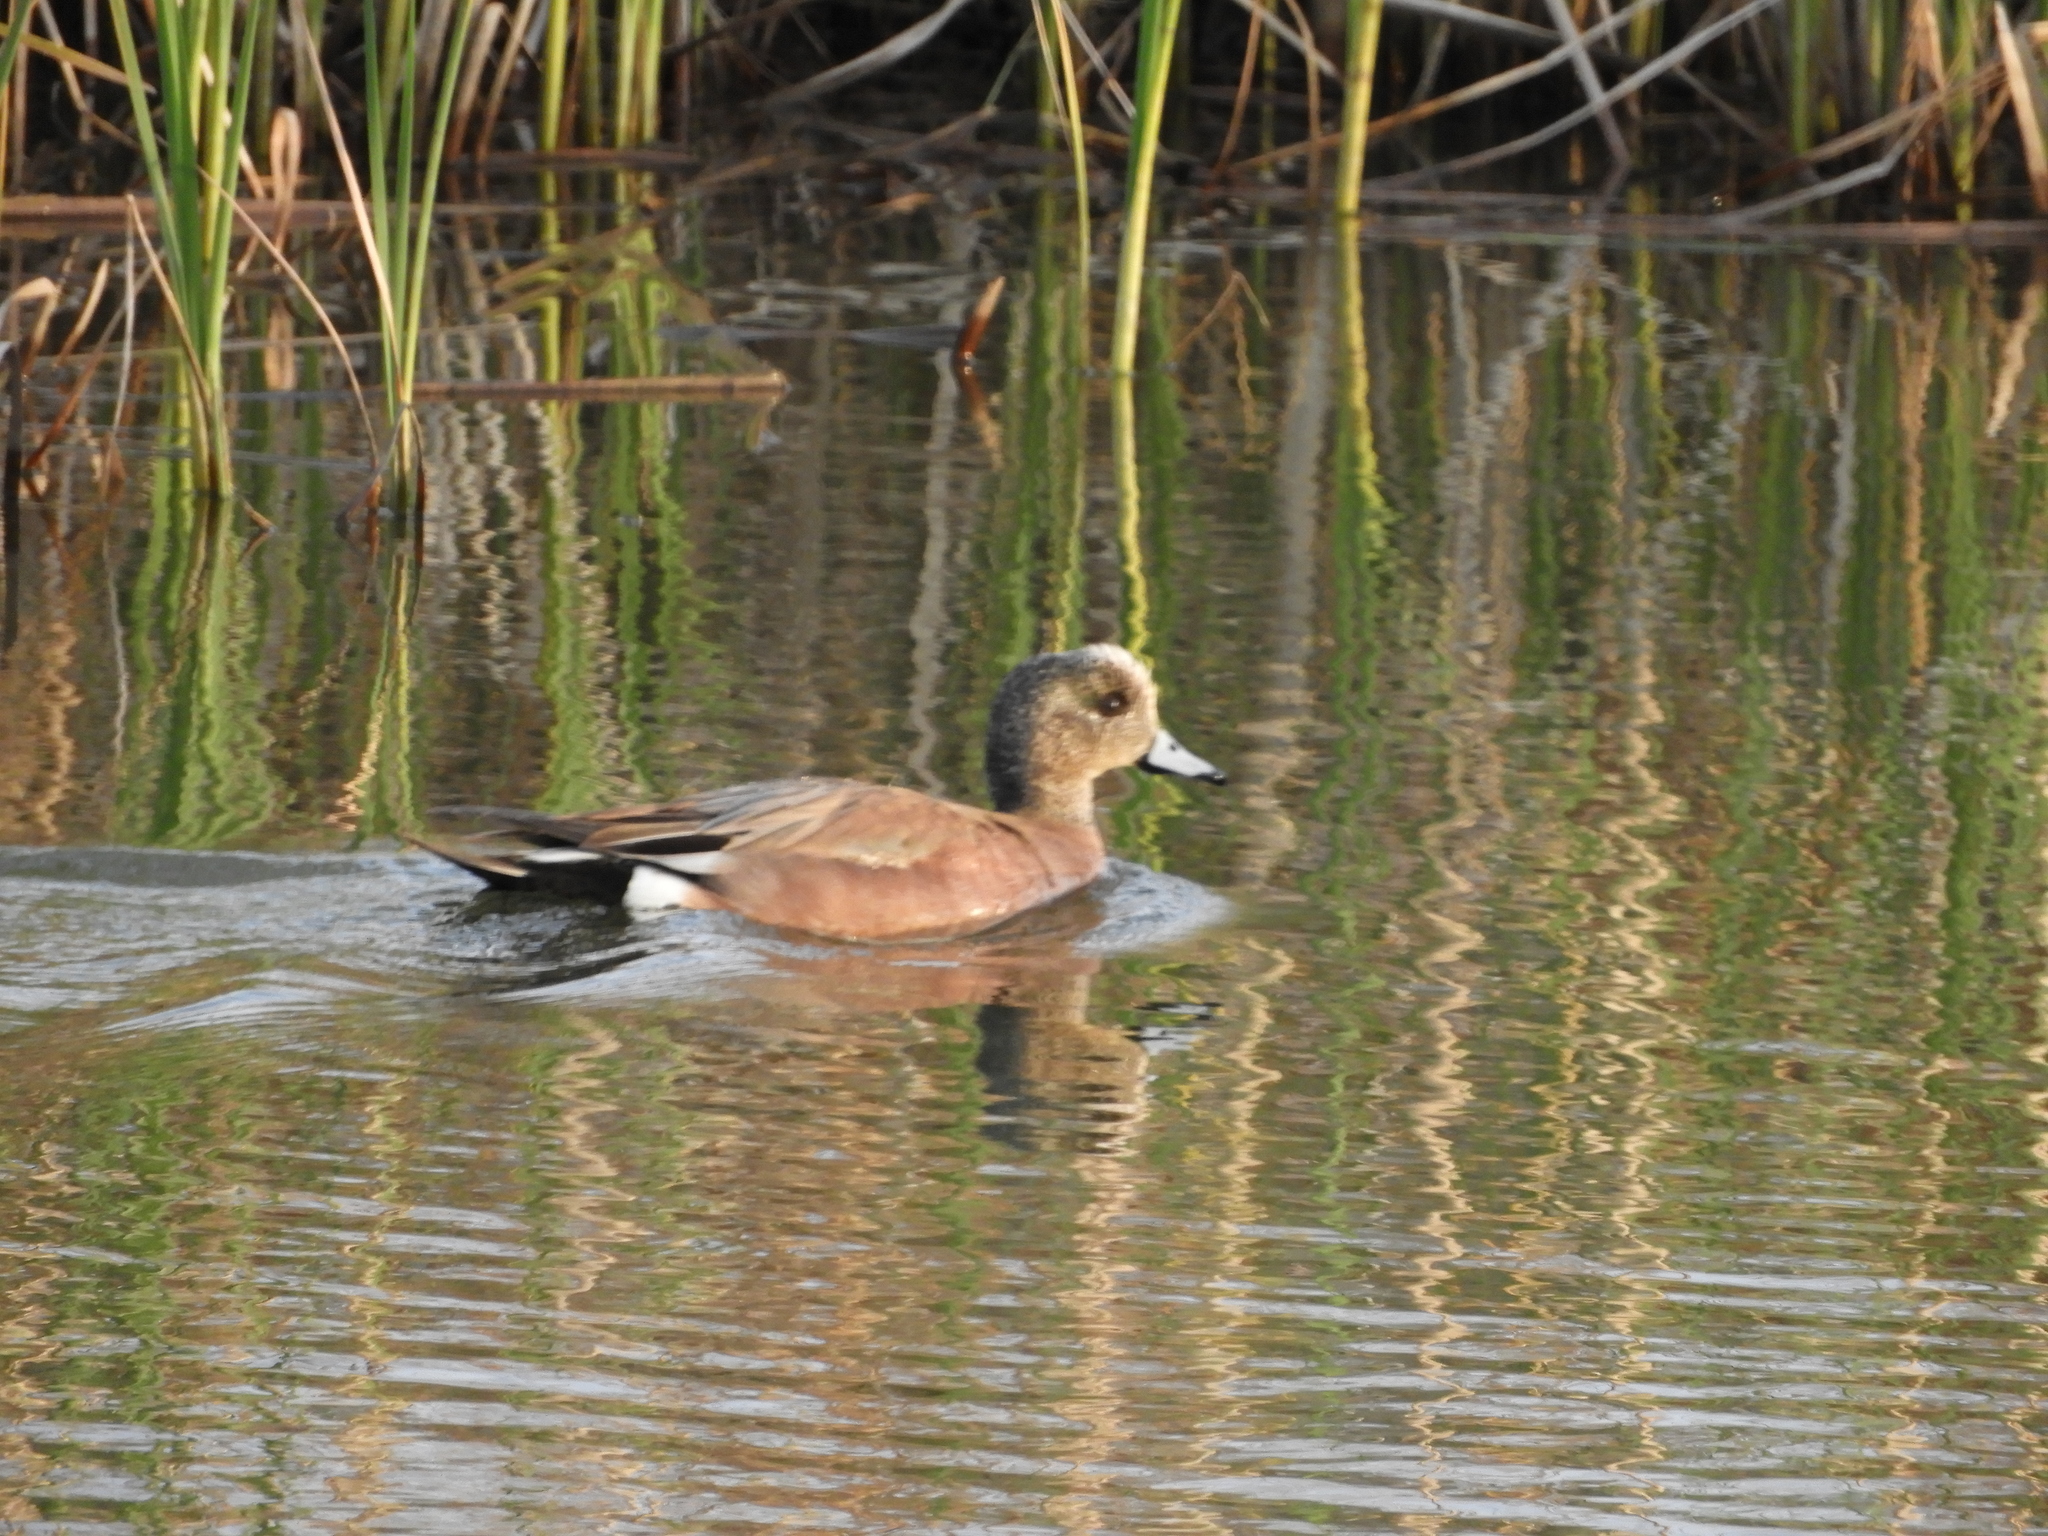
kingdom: Animalia
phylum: Chordata
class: Aves
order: Anseriformes
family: Anatidae
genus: Mareca
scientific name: Mareca americana
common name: American wigeon
